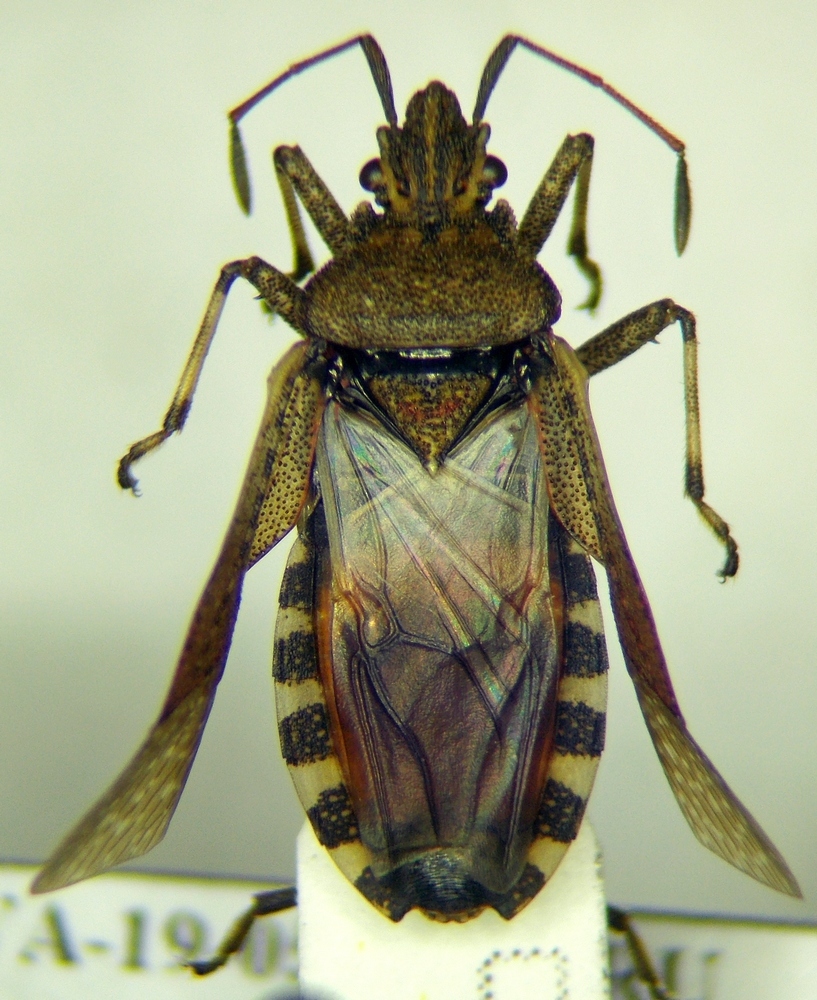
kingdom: Animalia
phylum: Arthropoda
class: Insecta
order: Hemiptera
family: Coreidae
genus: Ceraleptus
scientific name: Ceraleptus gracilicornis
